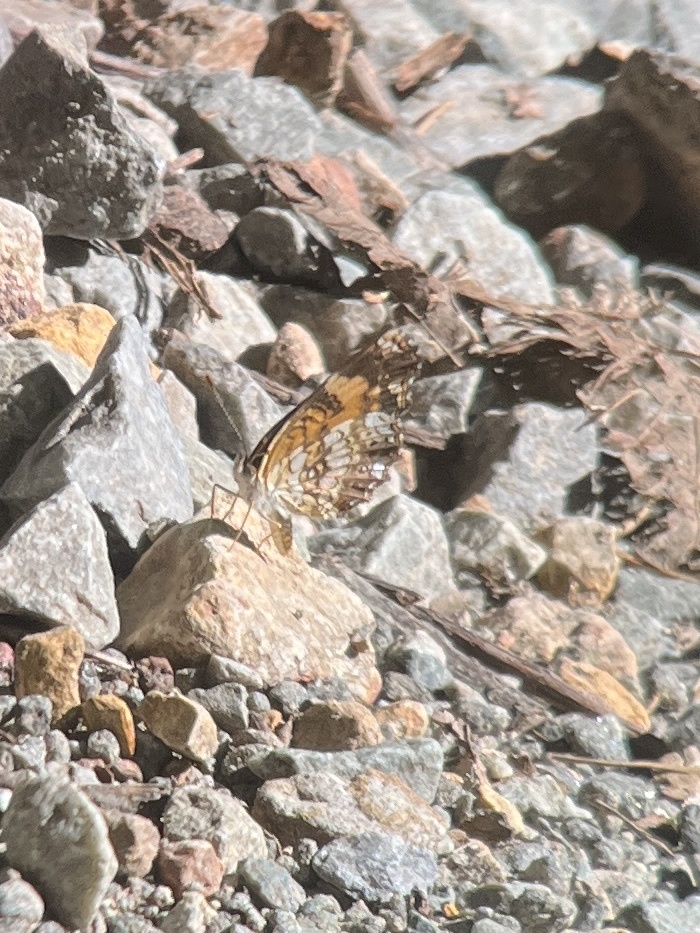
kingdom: Animalia
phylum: Arthropoda
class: Insecta
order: Lepidoptera
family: Nymphalidae
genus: Chlosyne
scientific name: Chlosyne nycteis
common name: Silvery checkerspot
